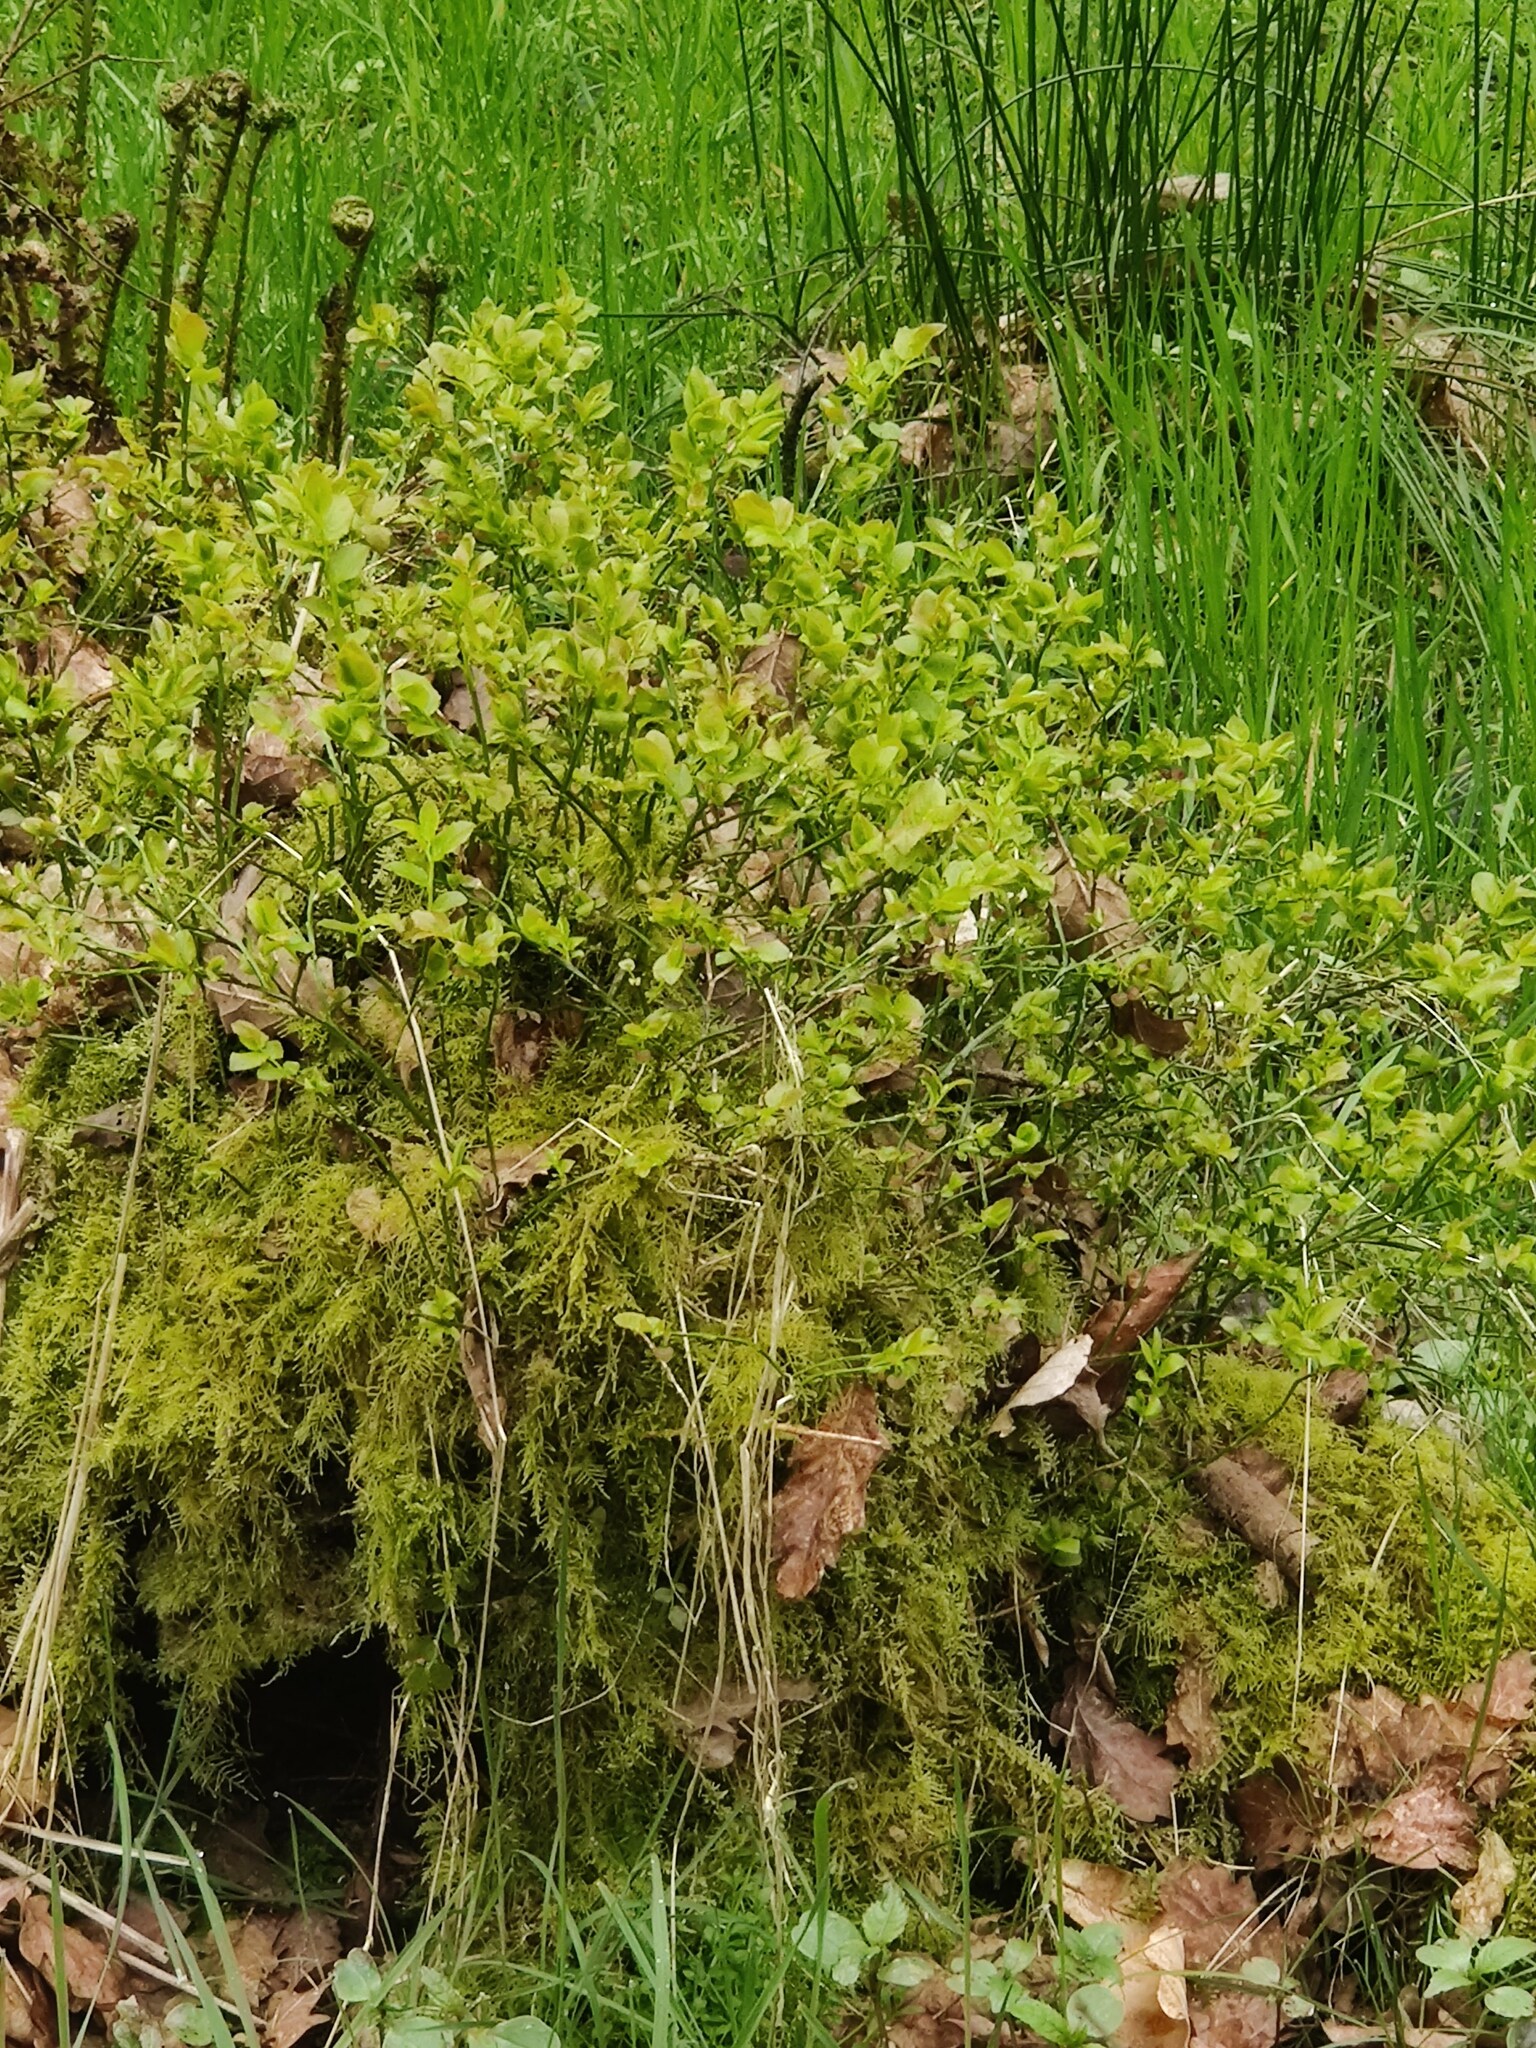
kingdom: Plantae
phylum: Tracheophyta
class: Magnoliopsida
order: Ericales
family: Ericaceae
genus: Vaccinium
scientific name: Vaccinium myrtillus
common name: Bilberry
